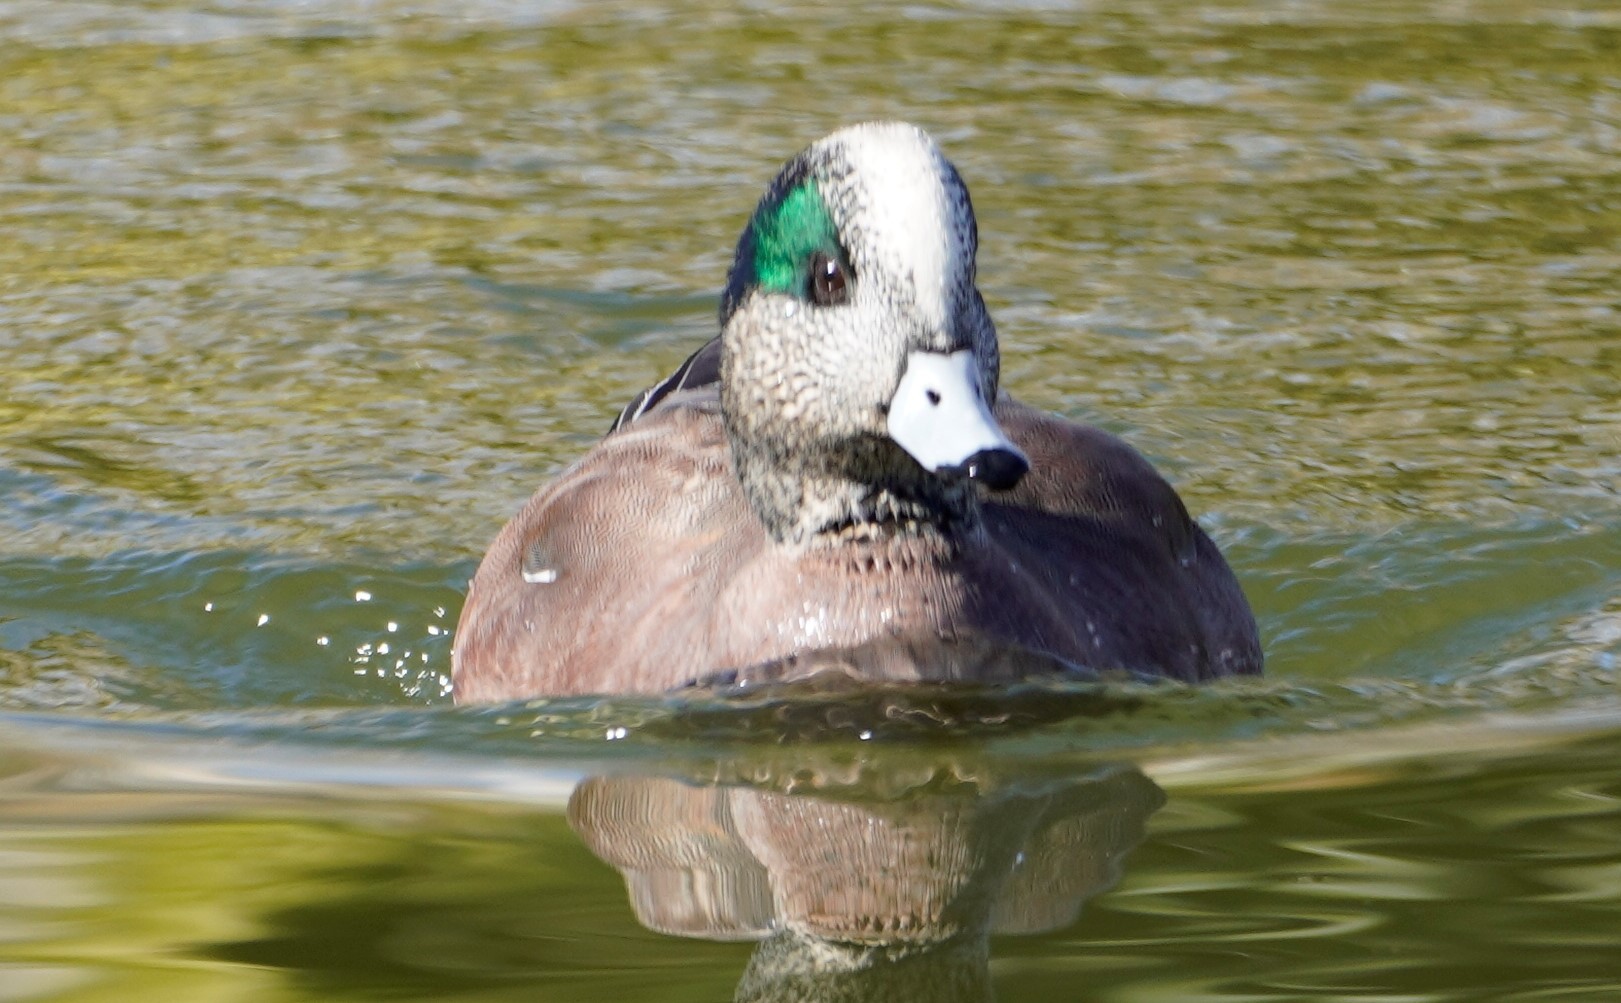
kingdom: Animalia
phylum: Chordata
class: Aves
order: Anseriformes
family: Anatidae
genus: Mareca
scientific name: Mareca americana
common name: American wigeon
